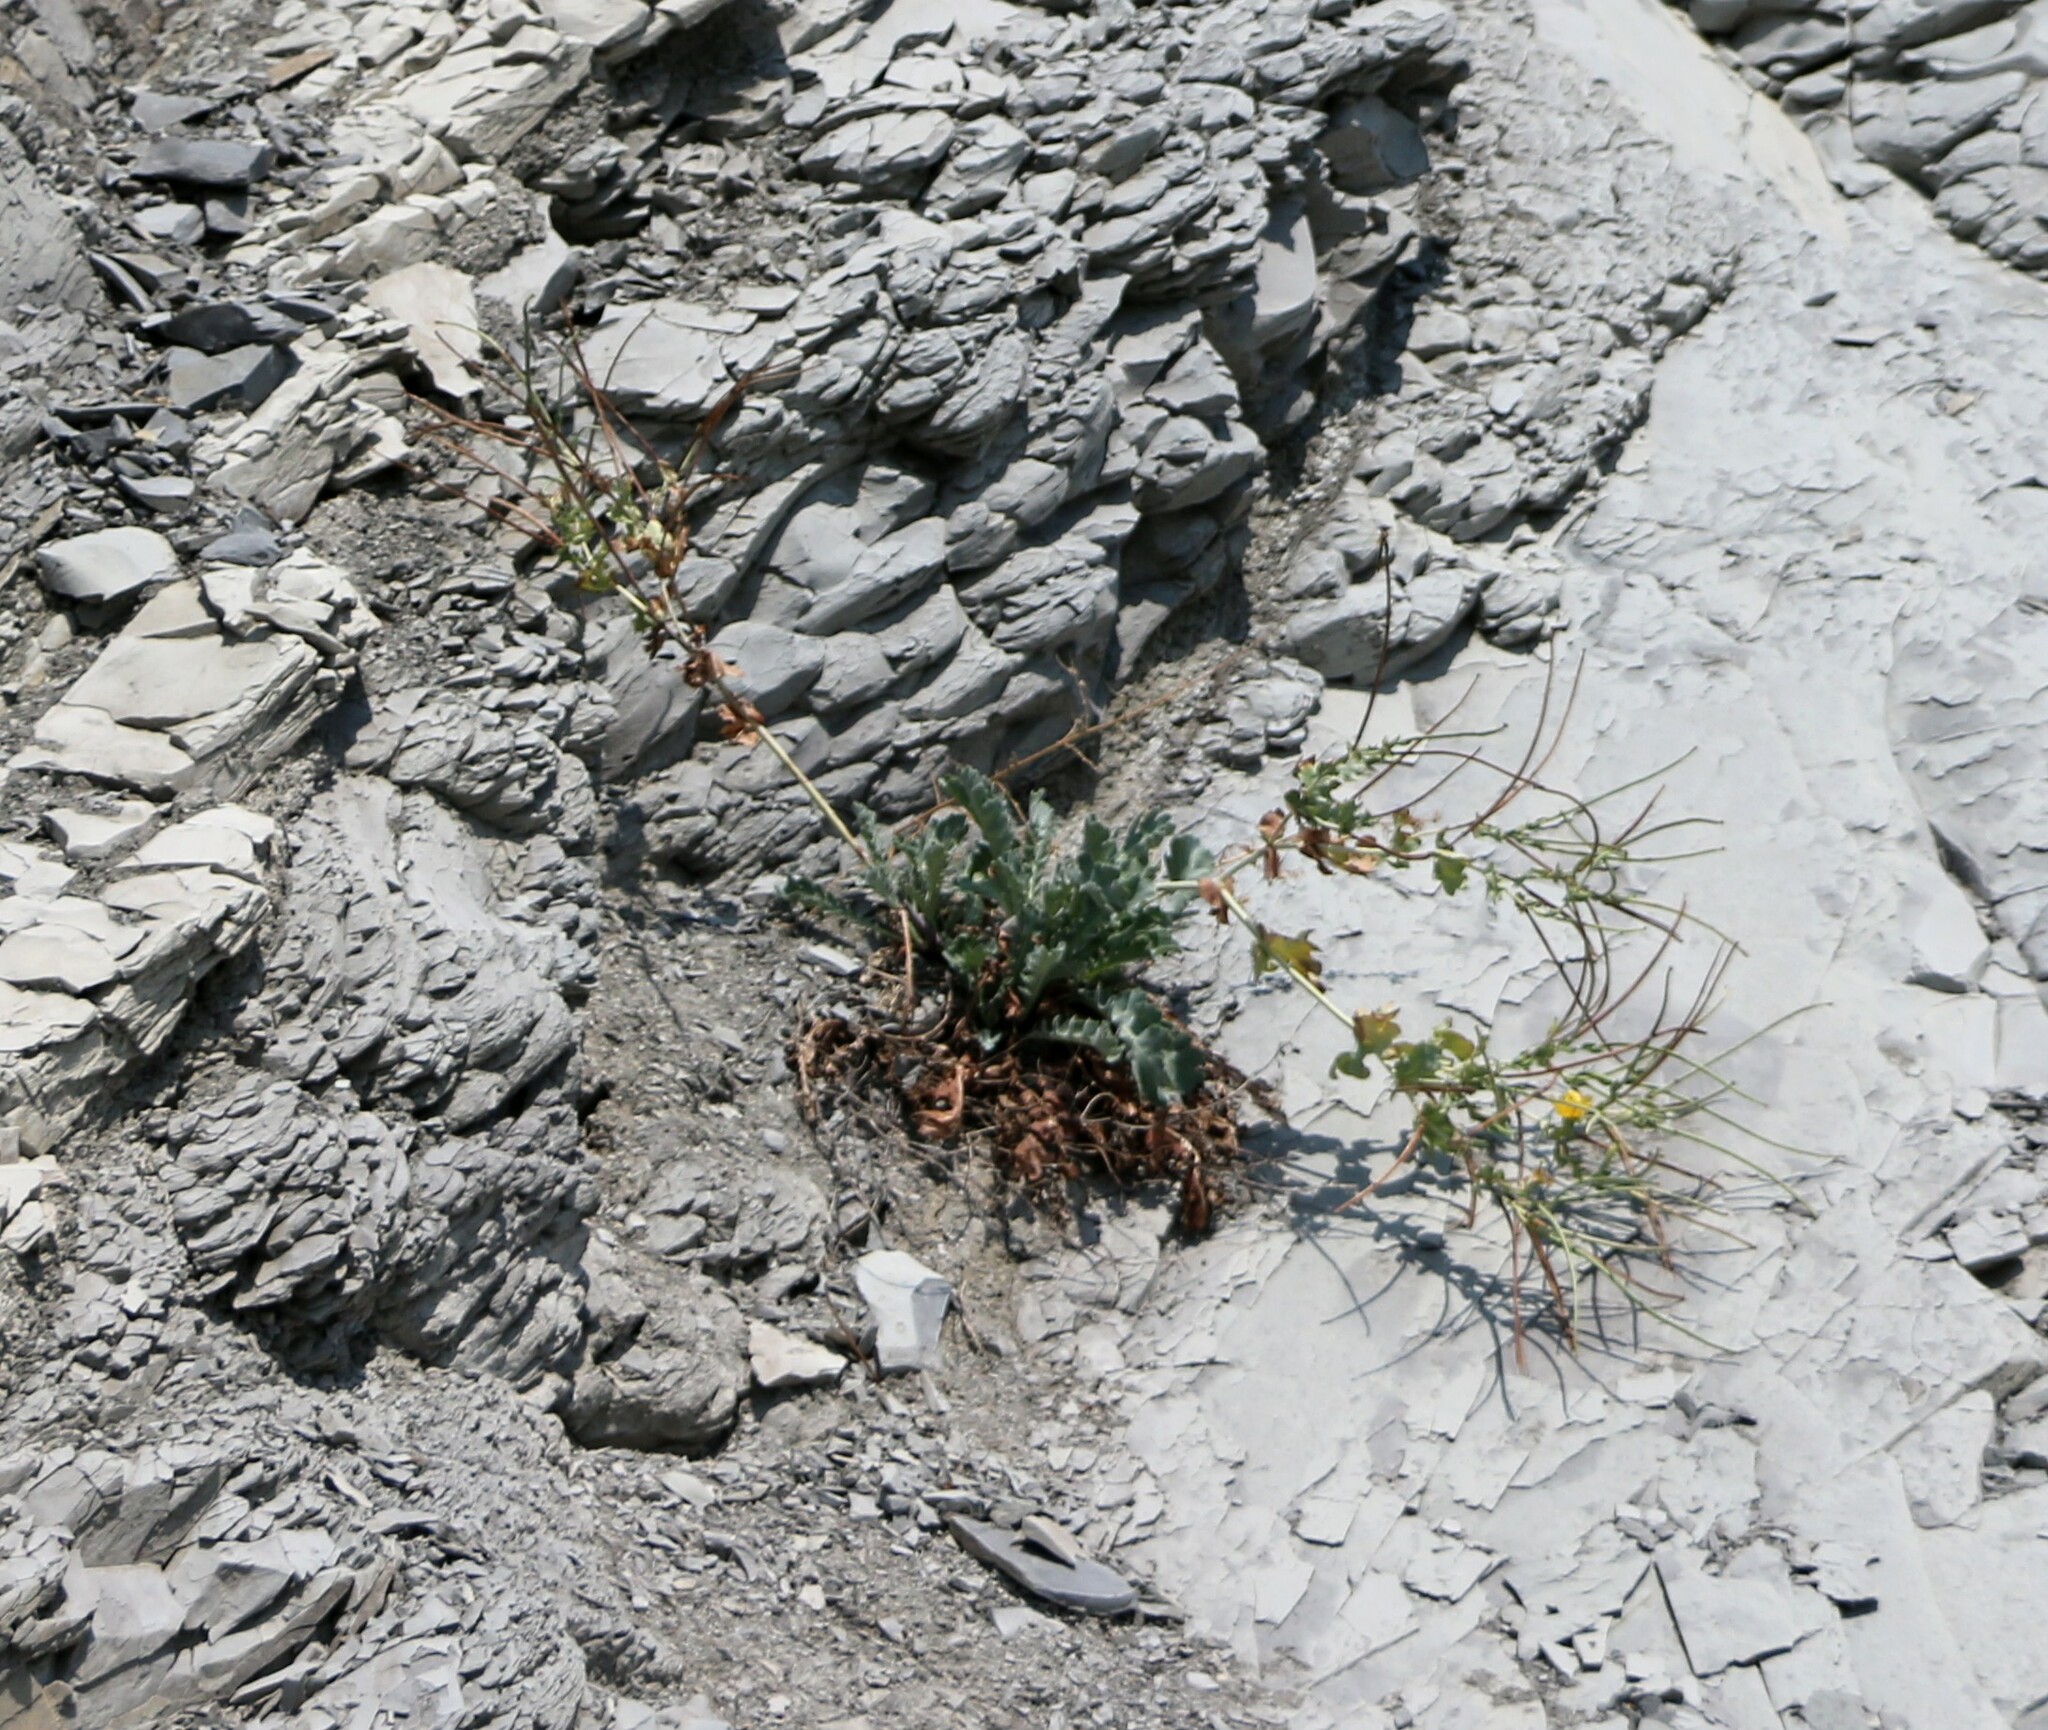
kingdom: Plantae
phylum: Tracheophyta
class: Magnoliopsida
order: Ranunculales
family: Papaveraceae
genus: Glaucium
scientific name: Glaucium flavum
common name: Yellow horned-poppy
